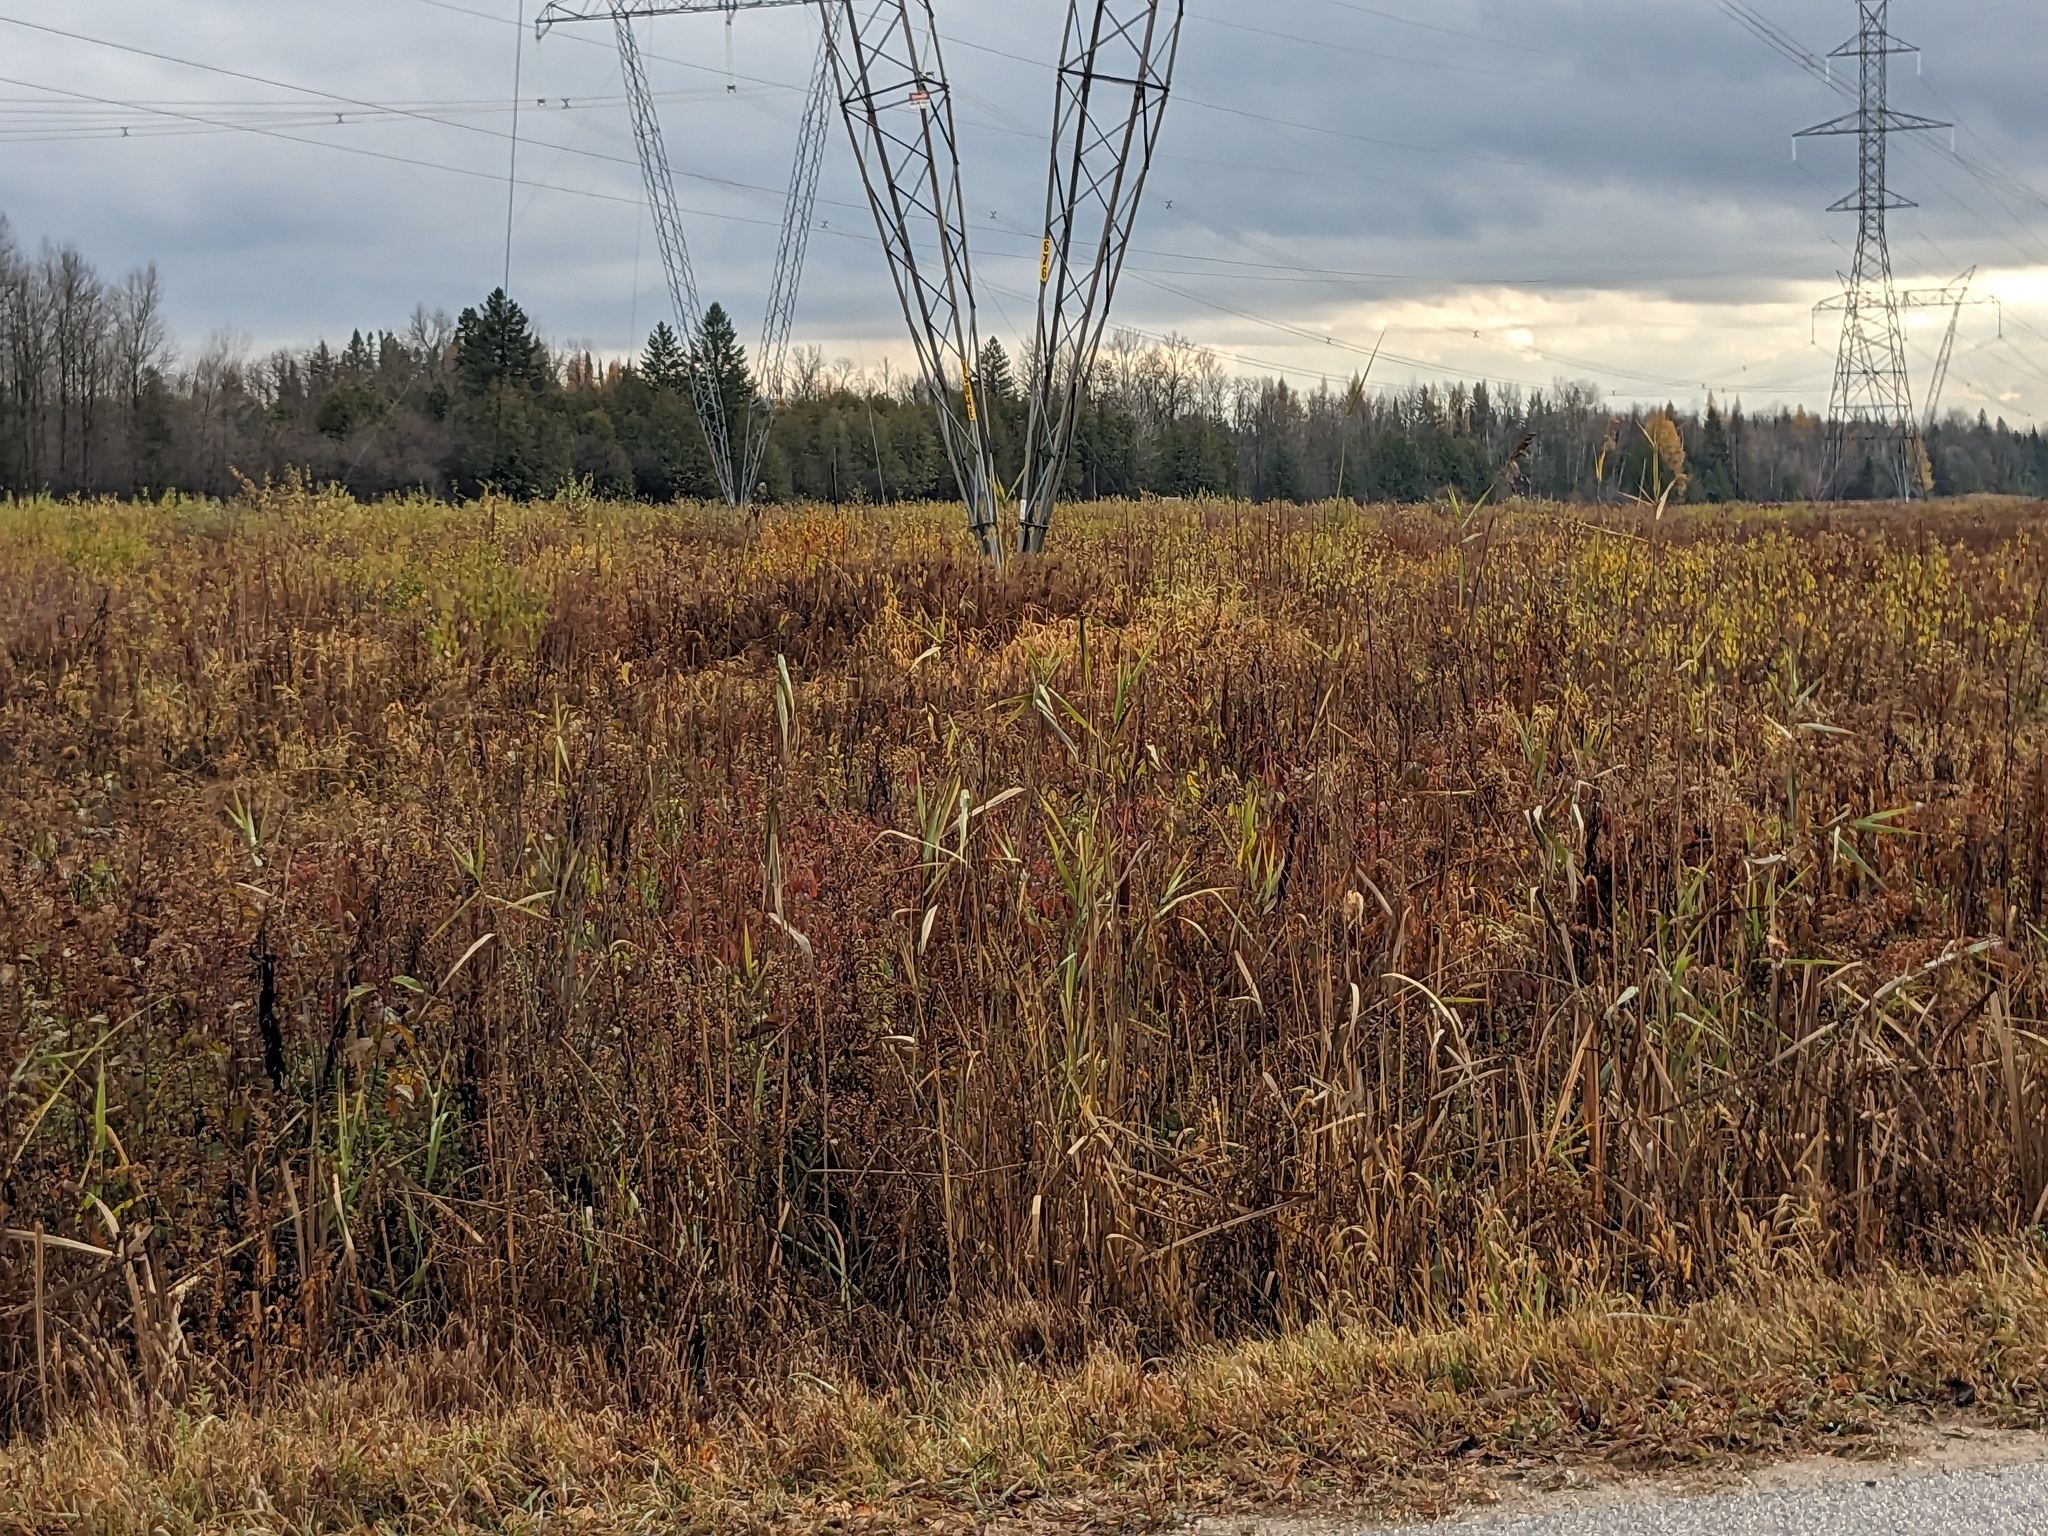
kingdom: Plantae
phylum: Tracheophyta
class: Liliopsida
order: Poales
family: Poaceae
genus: Phragmites
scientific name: Phragmites australis
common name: Common reed
